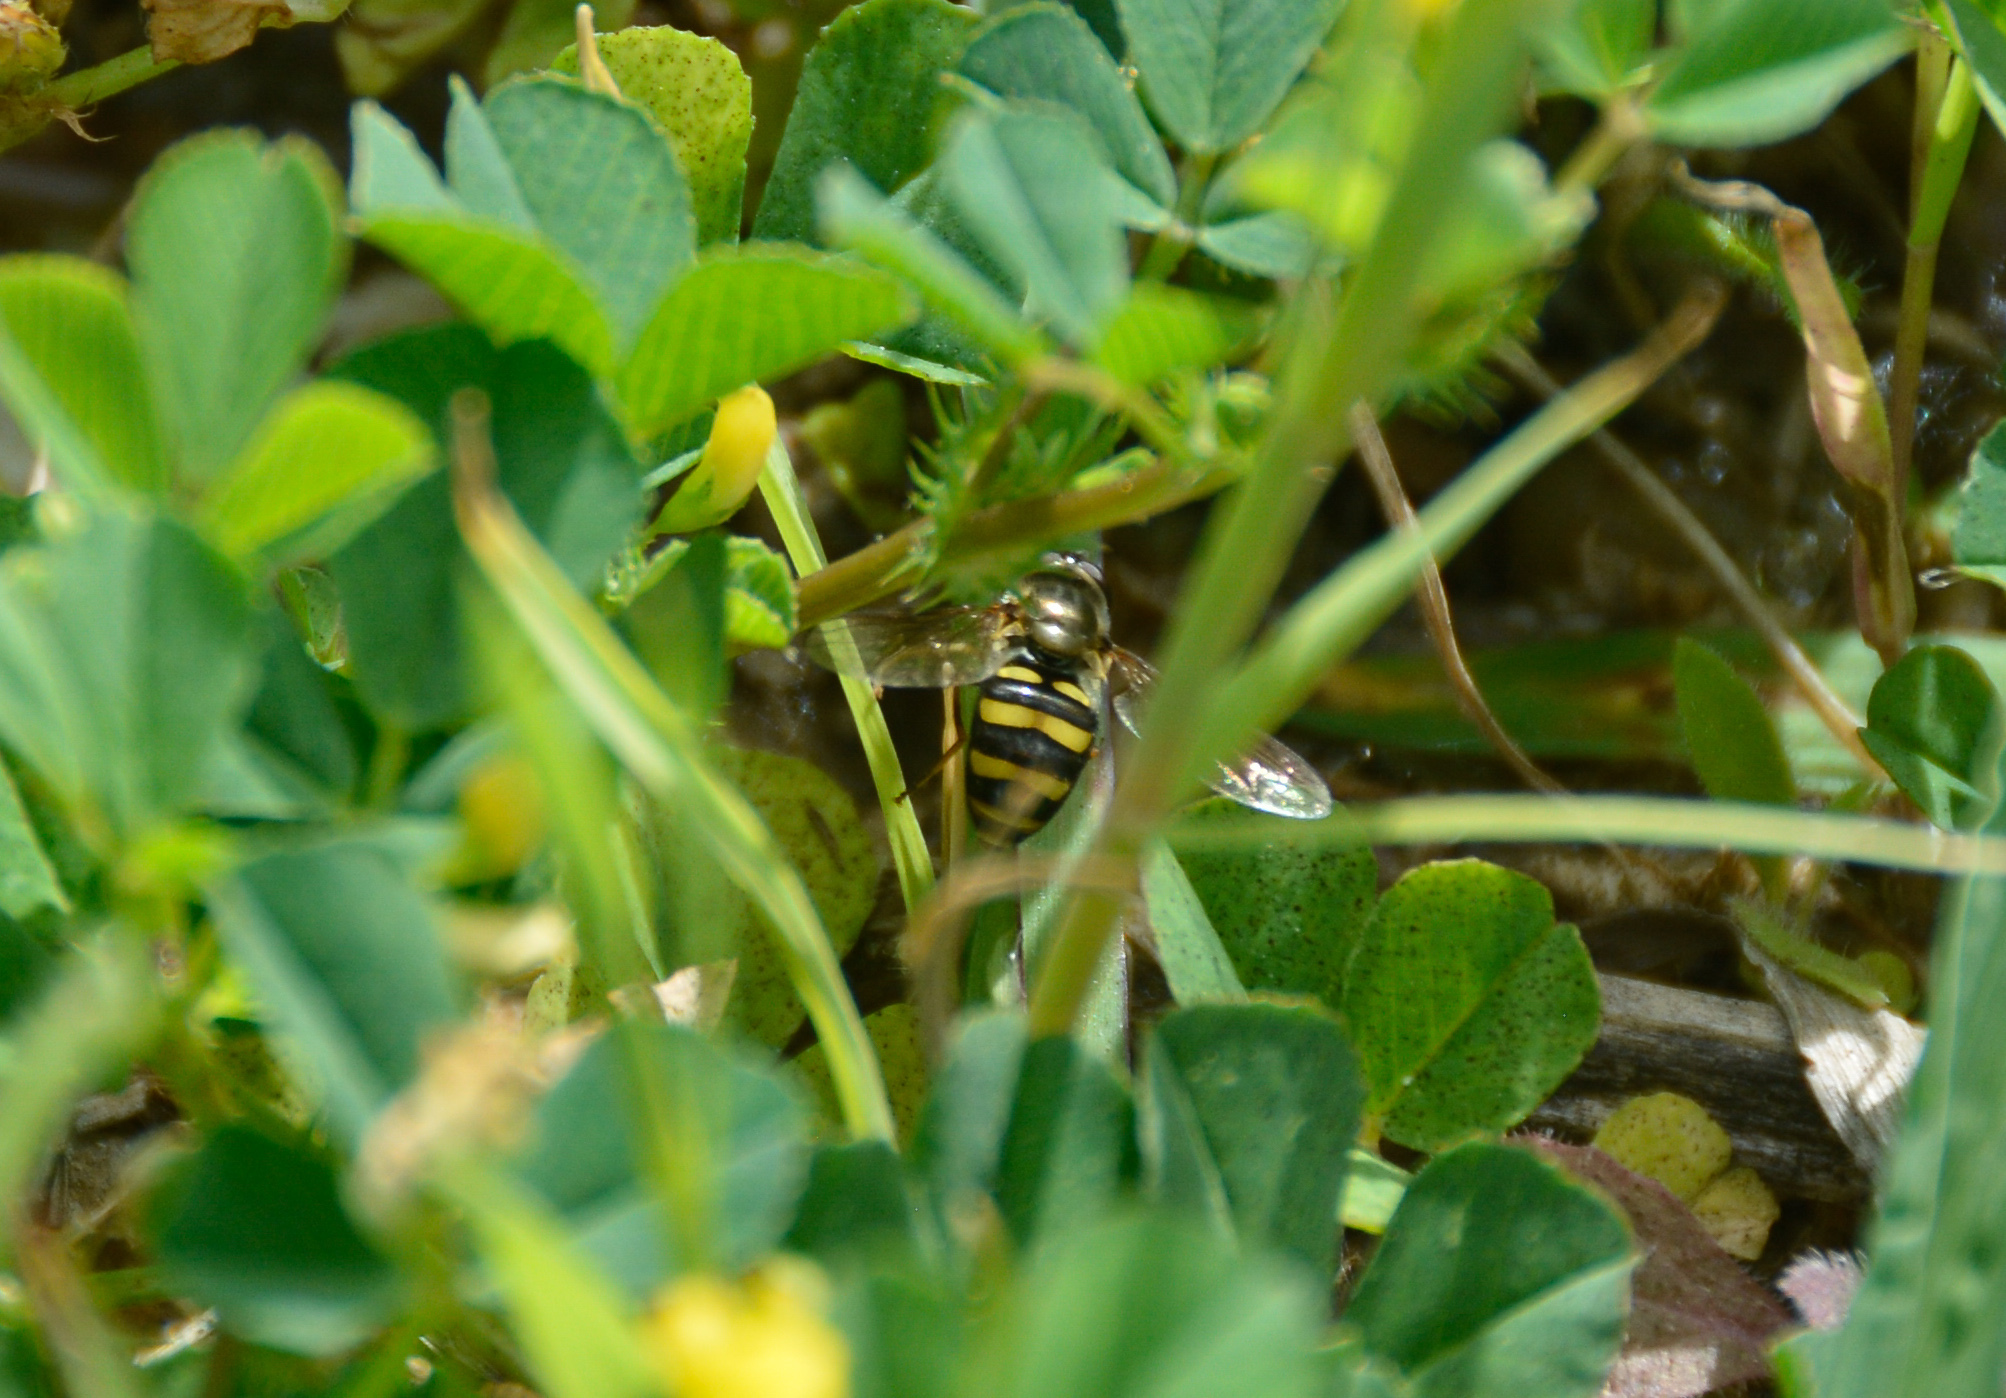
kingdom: Animalia
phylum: Arthropoda
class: Insecta
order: Diptera
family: Syrphidae
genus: Eupeodes
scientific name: Eupeodes
